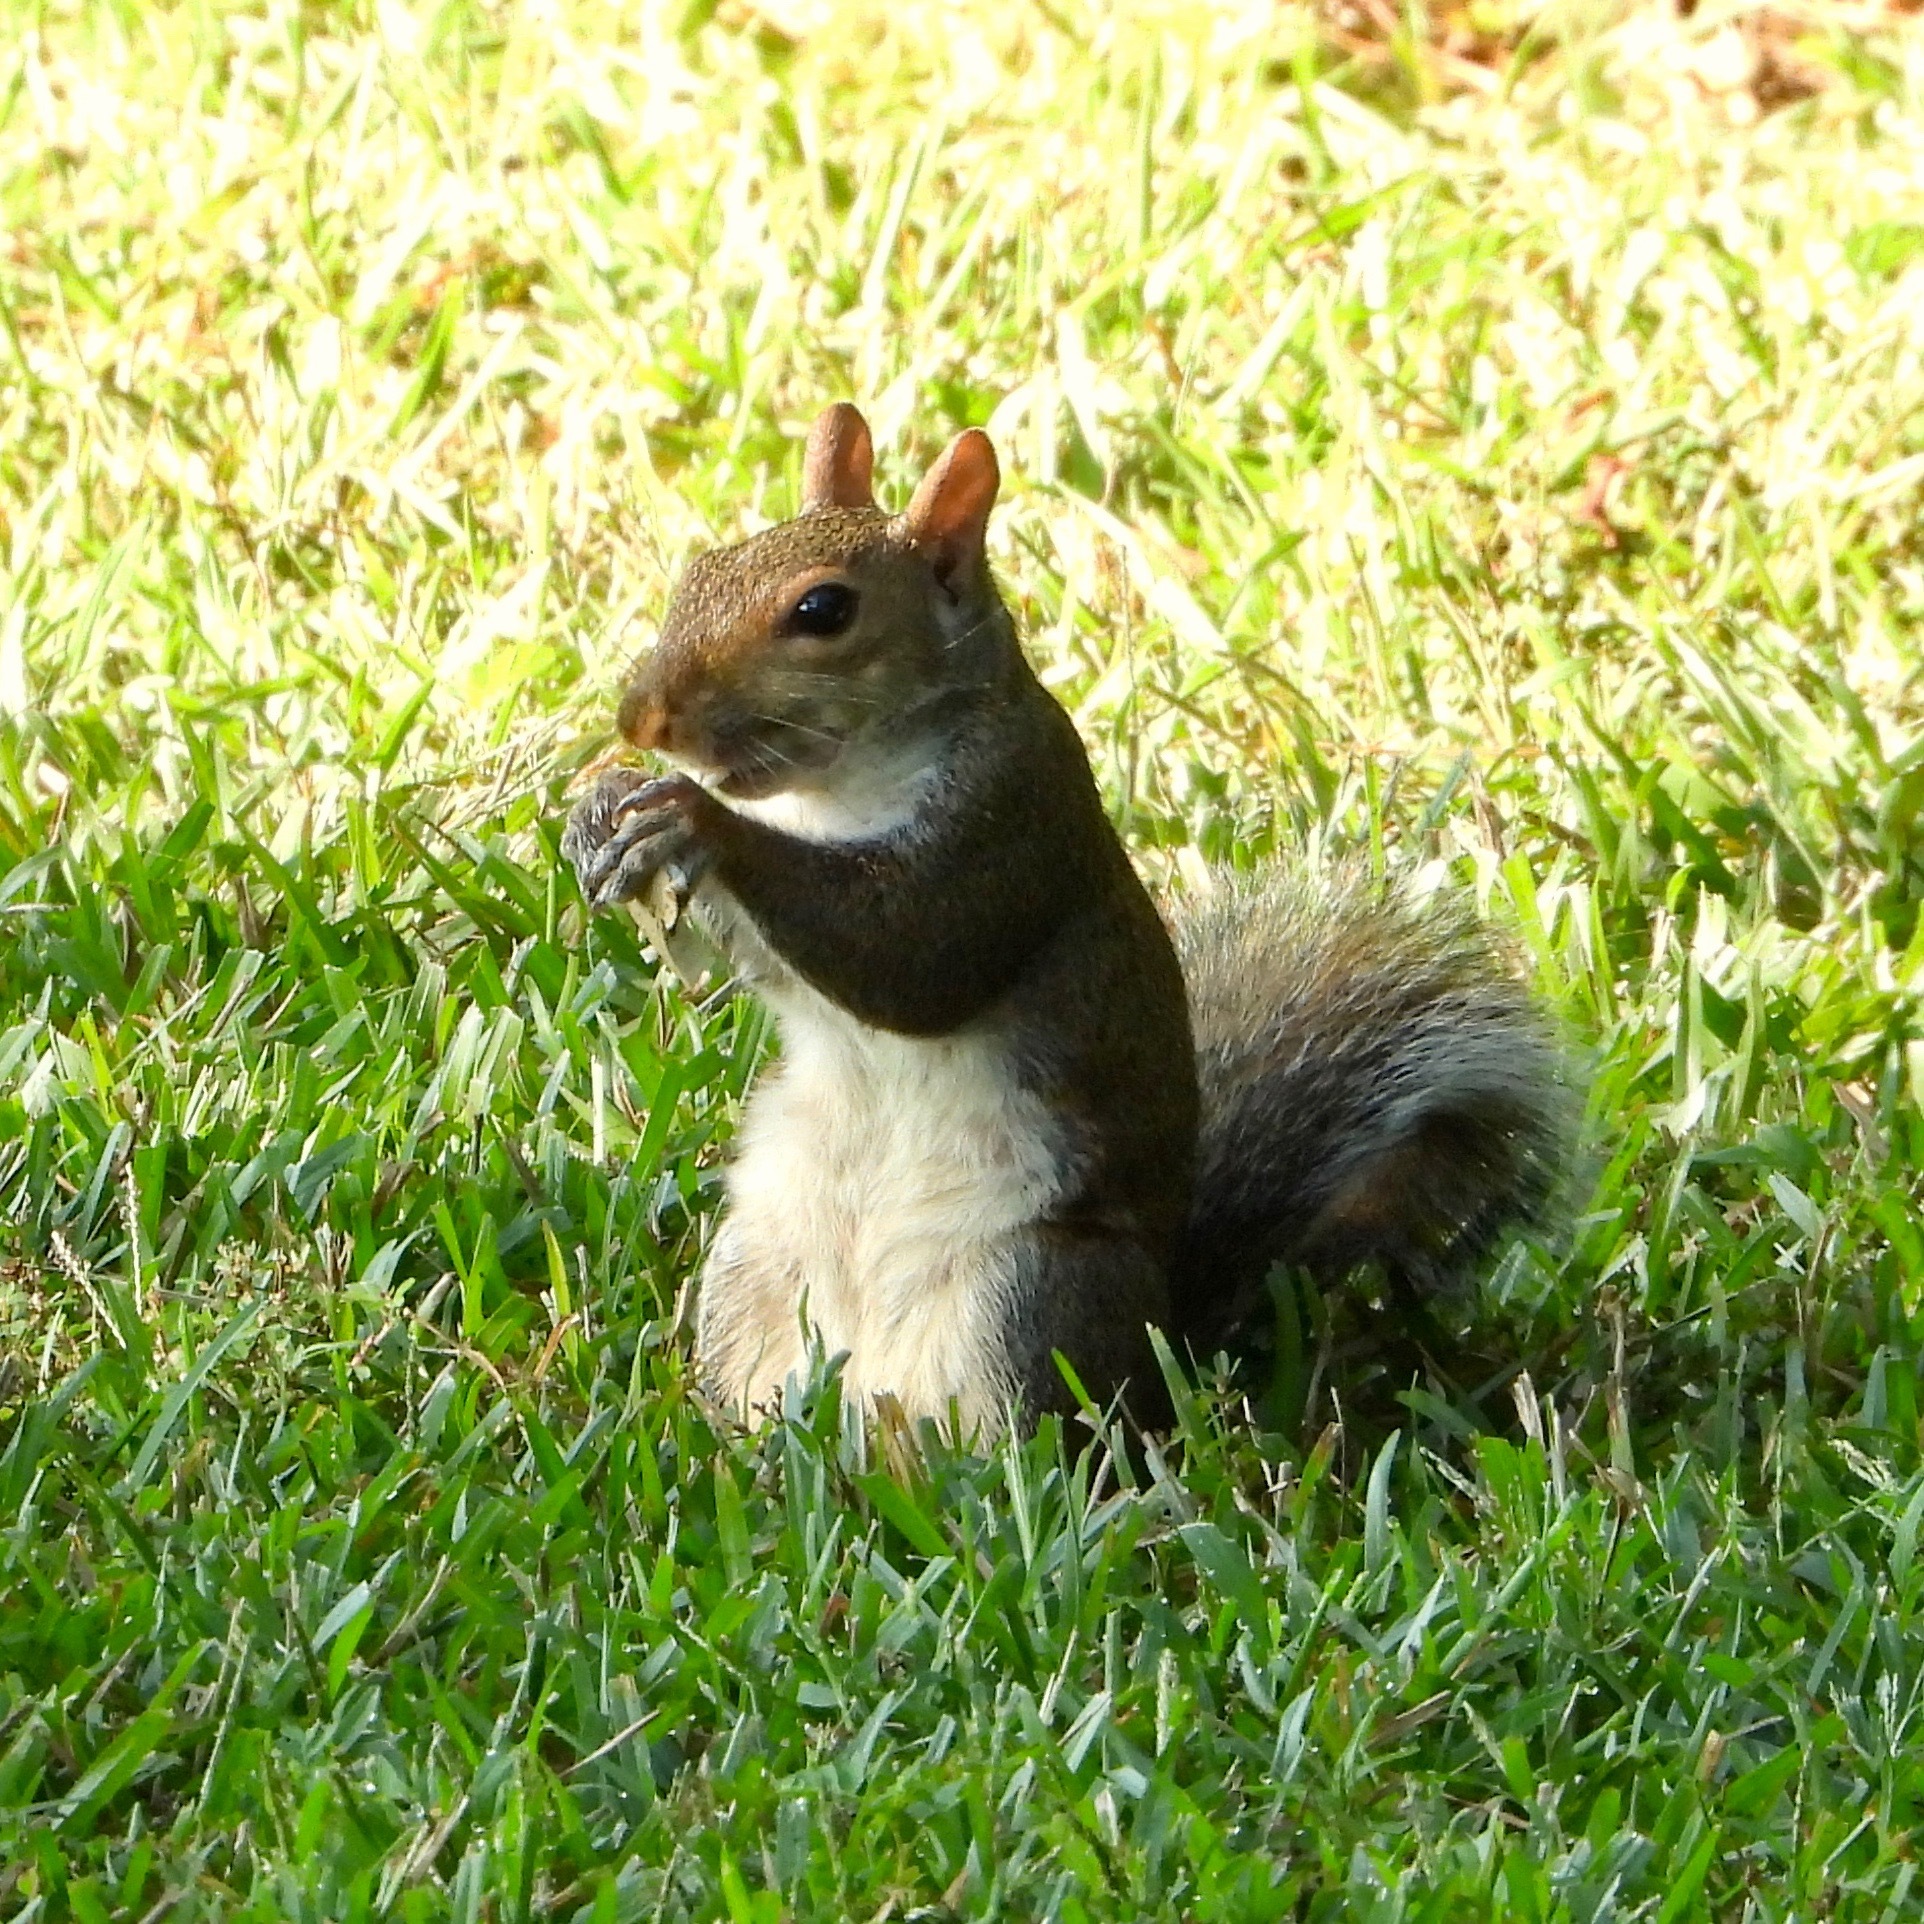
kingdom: Animalia
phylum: Chordata
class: Mammalia
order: Rodentia
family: Sciuridae
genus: Sciurus
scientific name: Sciurus carolinensis
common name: Eastern gray squirrel
